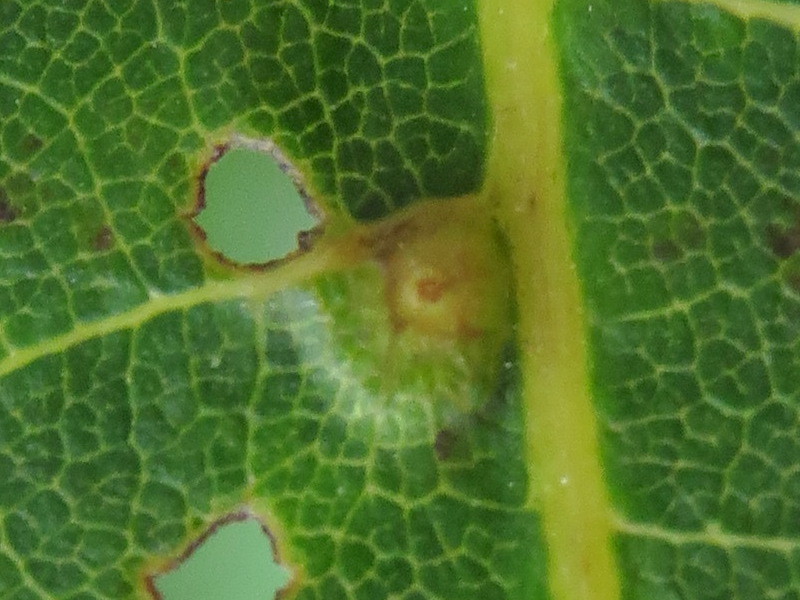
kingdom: Animalia
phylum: Arthropoda
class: Insecta
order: Diptera
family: Cecidomyiidae
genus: Caryomyia
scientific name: Caryomyia tubicola
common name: Hickory bullet gall midge
